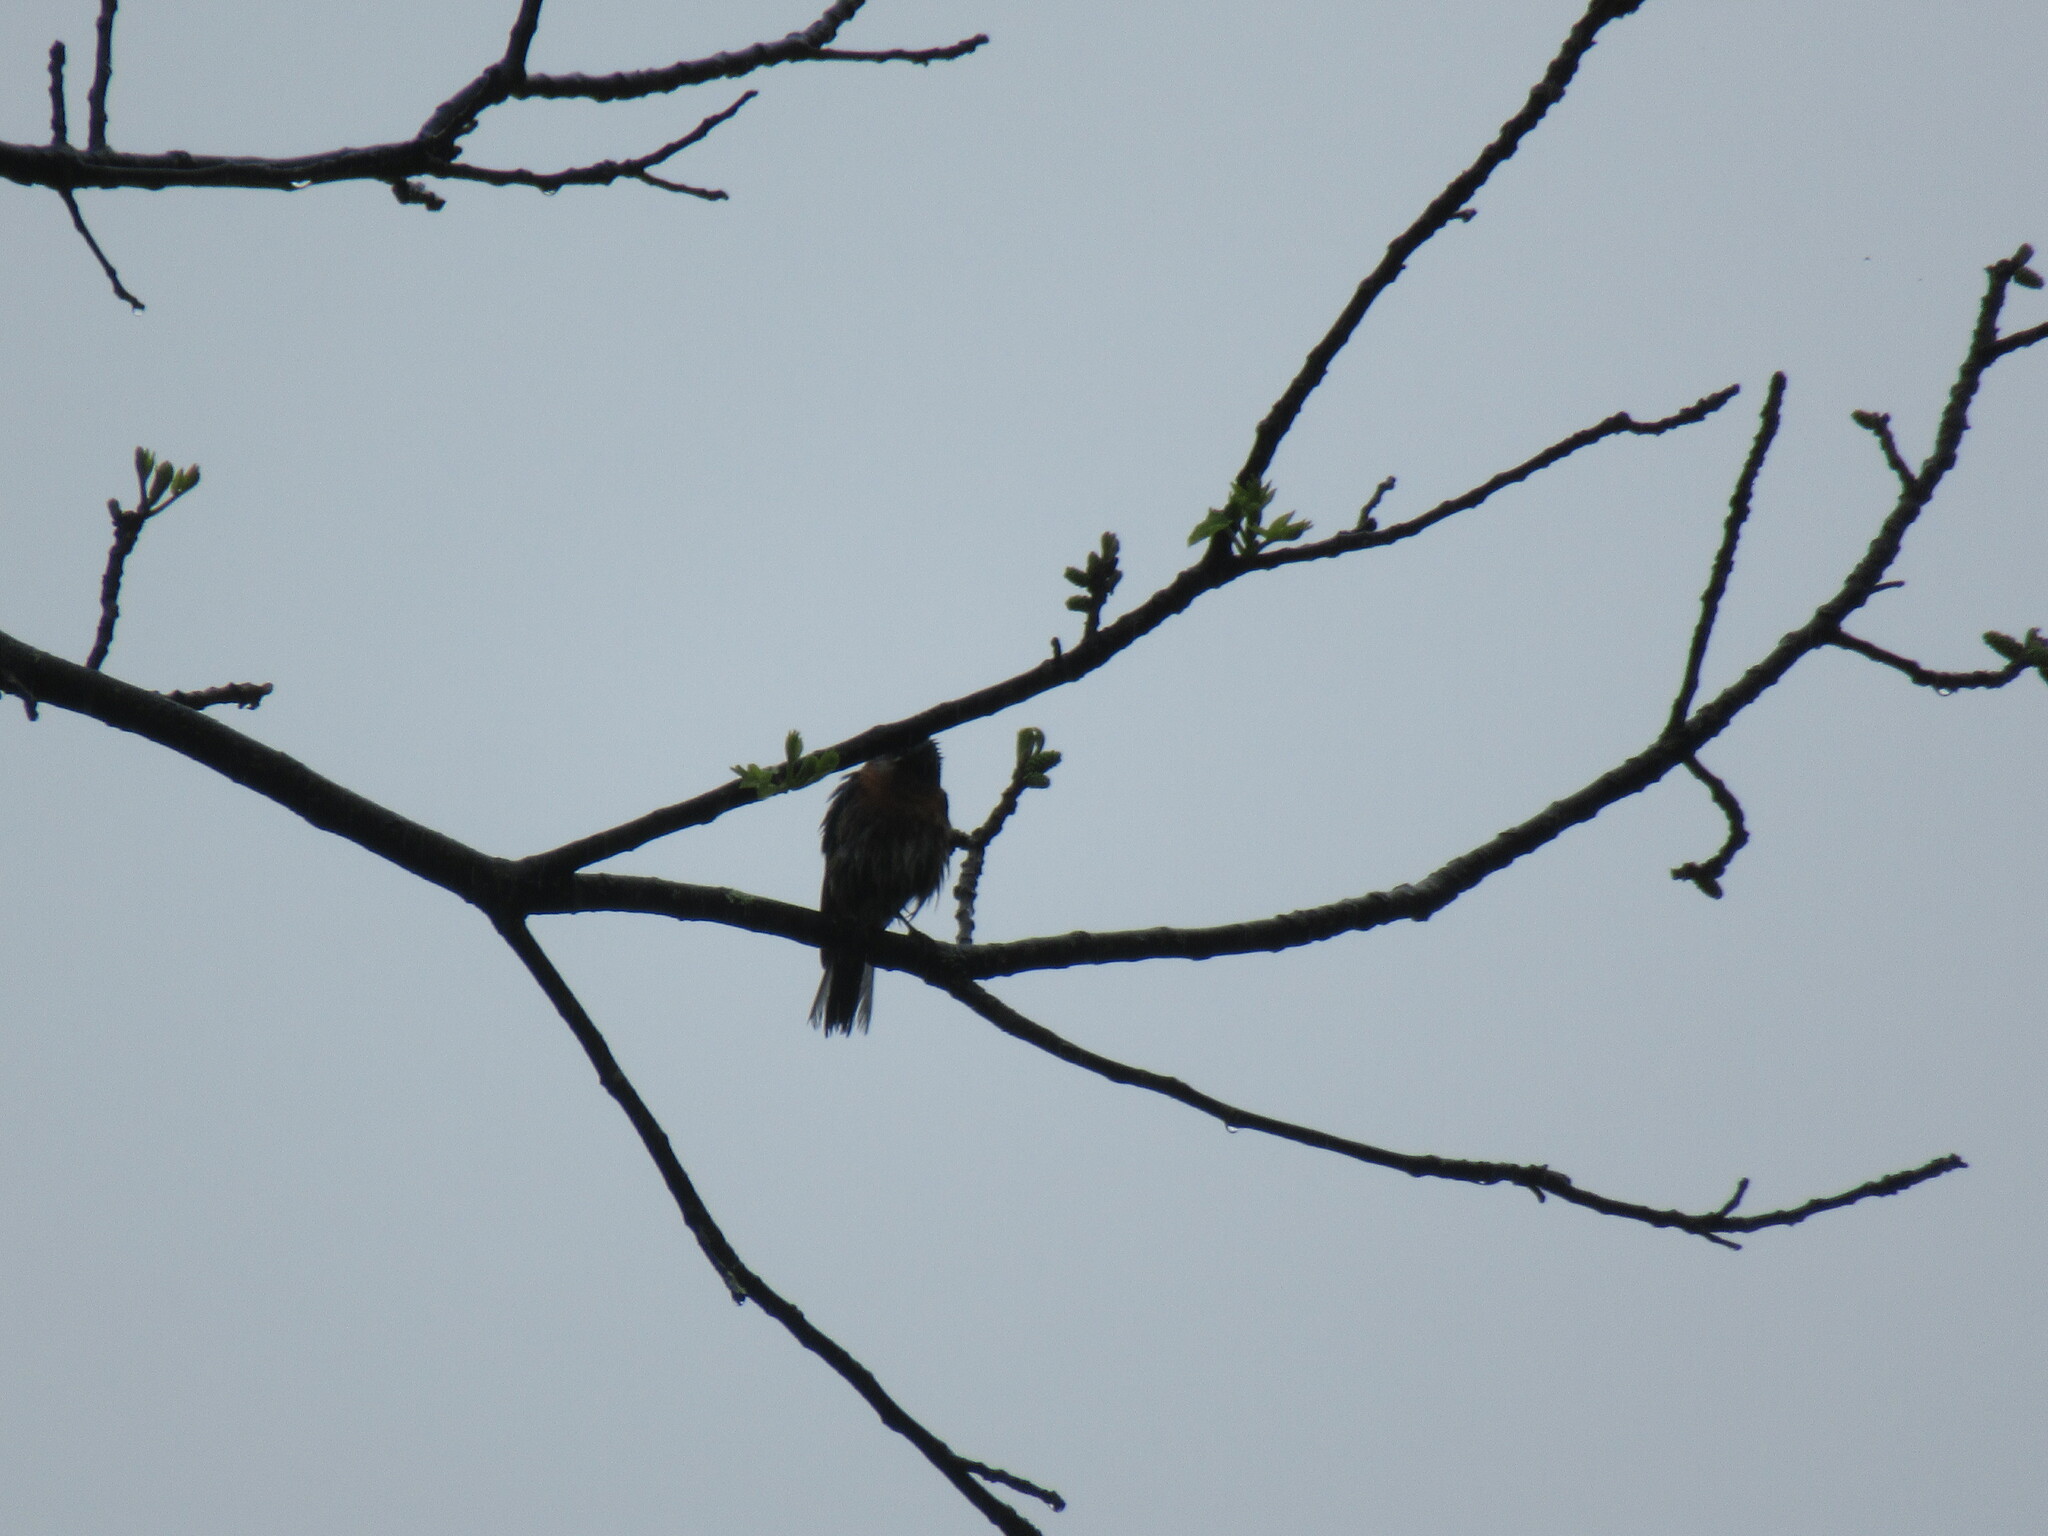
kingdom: Animalia
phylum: Chordata
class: Aves
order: Passeriformes
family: Turdidae
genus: Sialia
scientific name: Sialia sialis
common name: Eastern bluebird
